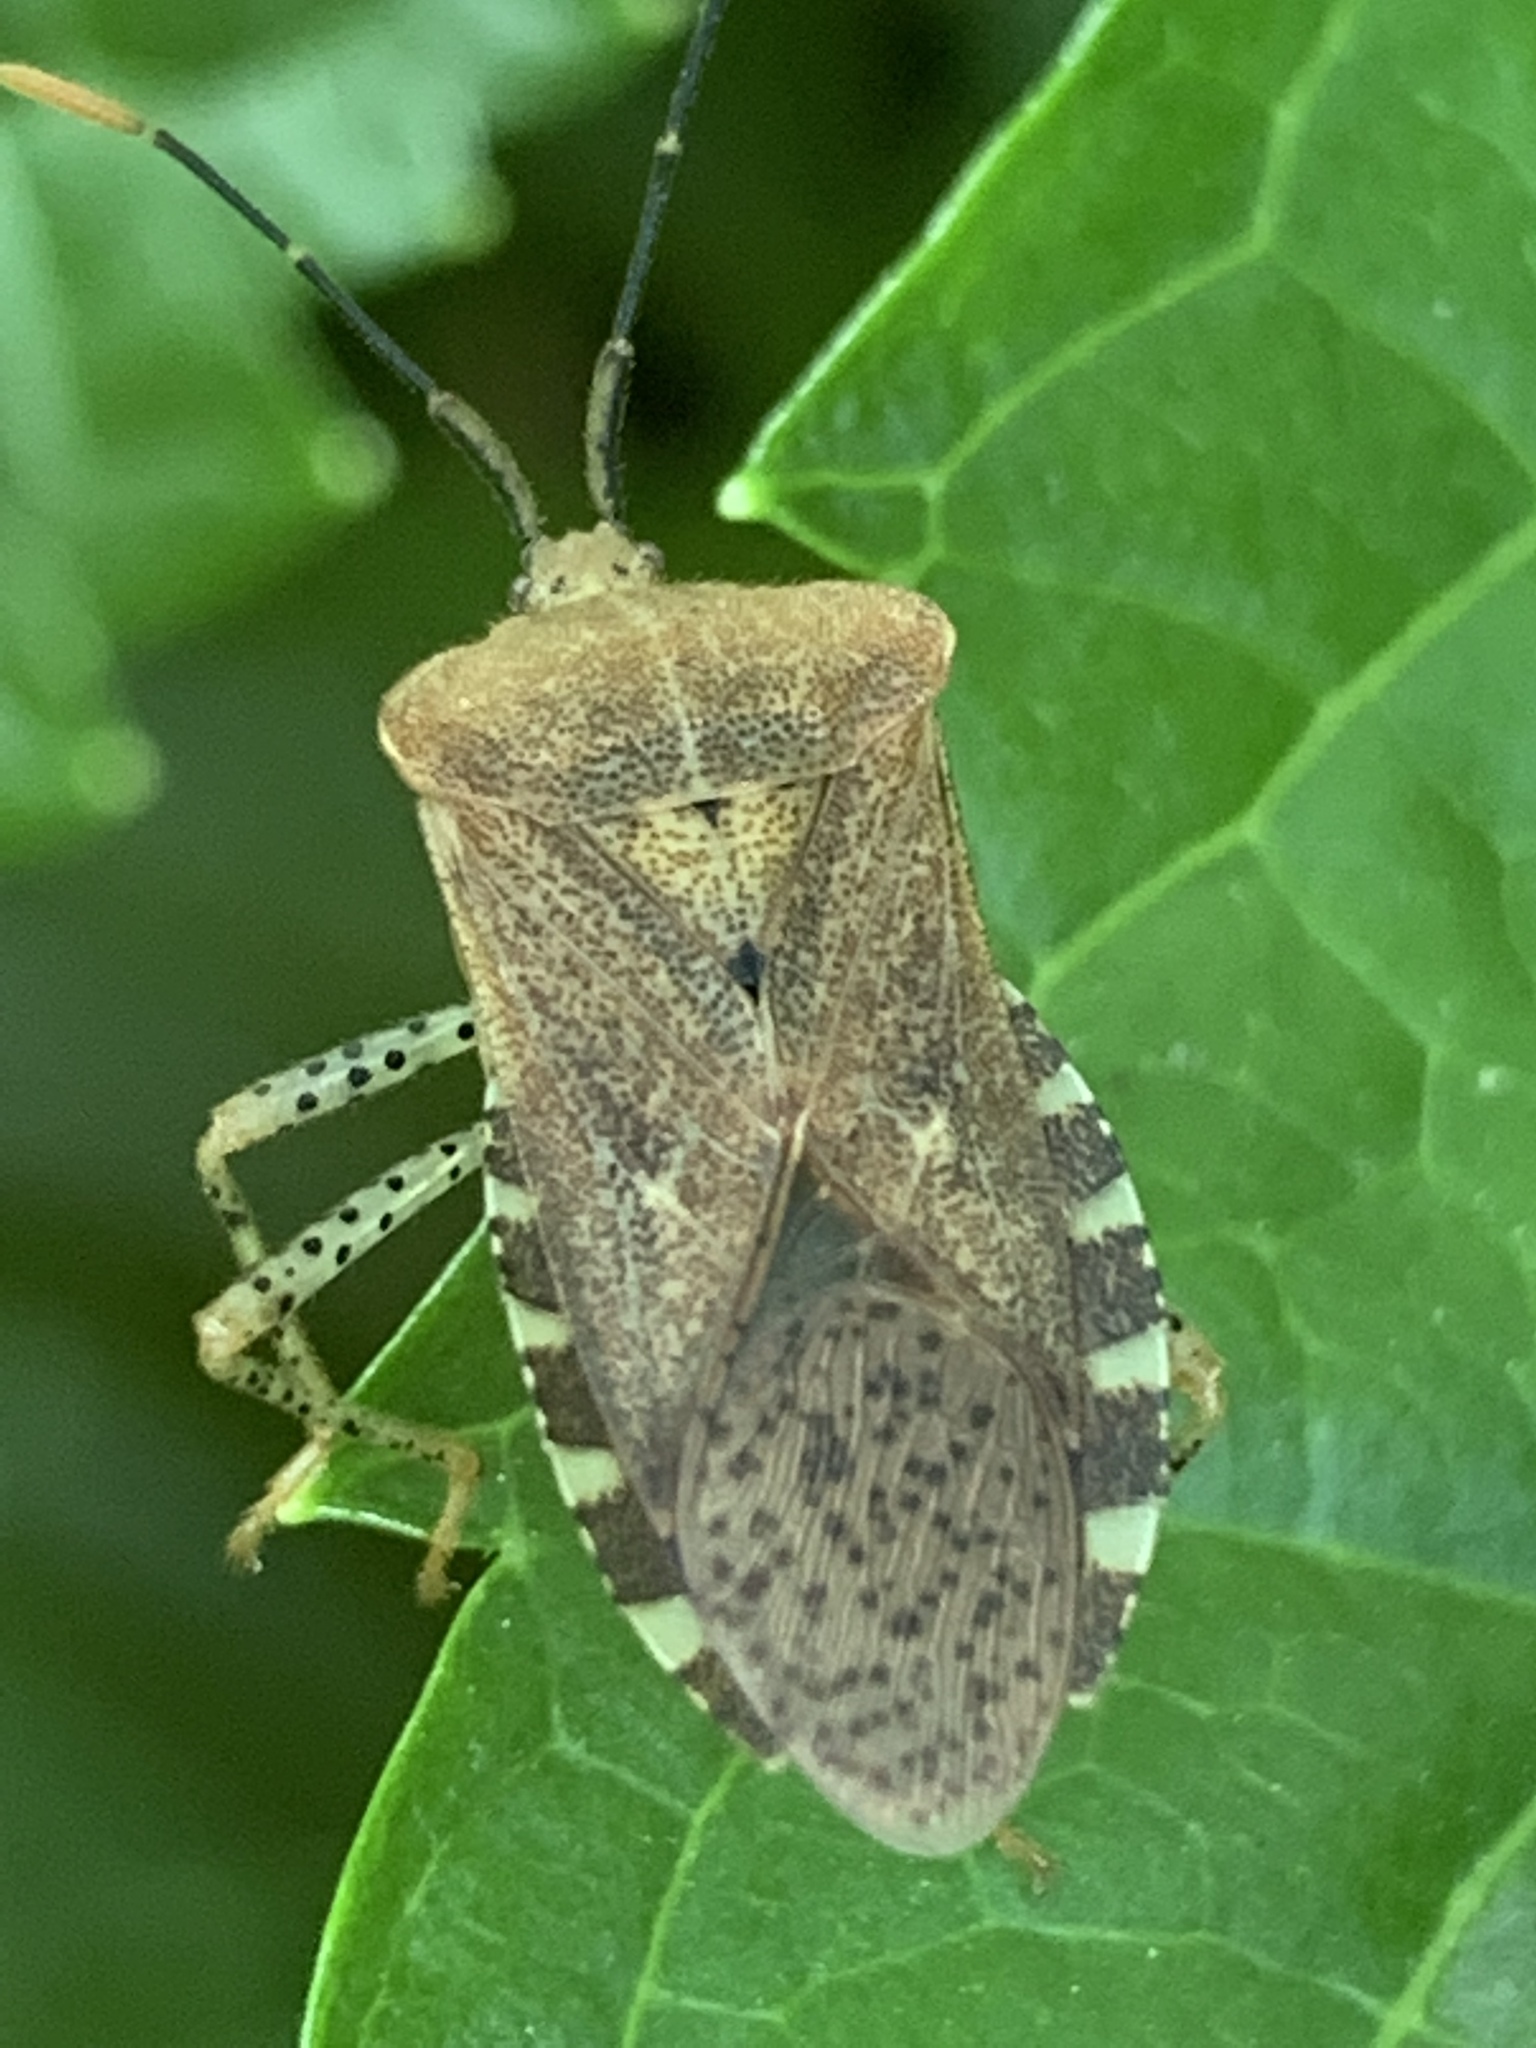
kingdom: Animalia
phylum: Arthropoda
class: Insecta
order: Hemiptera
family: Coreidae
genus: Anasa
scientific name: Anasa repetita
